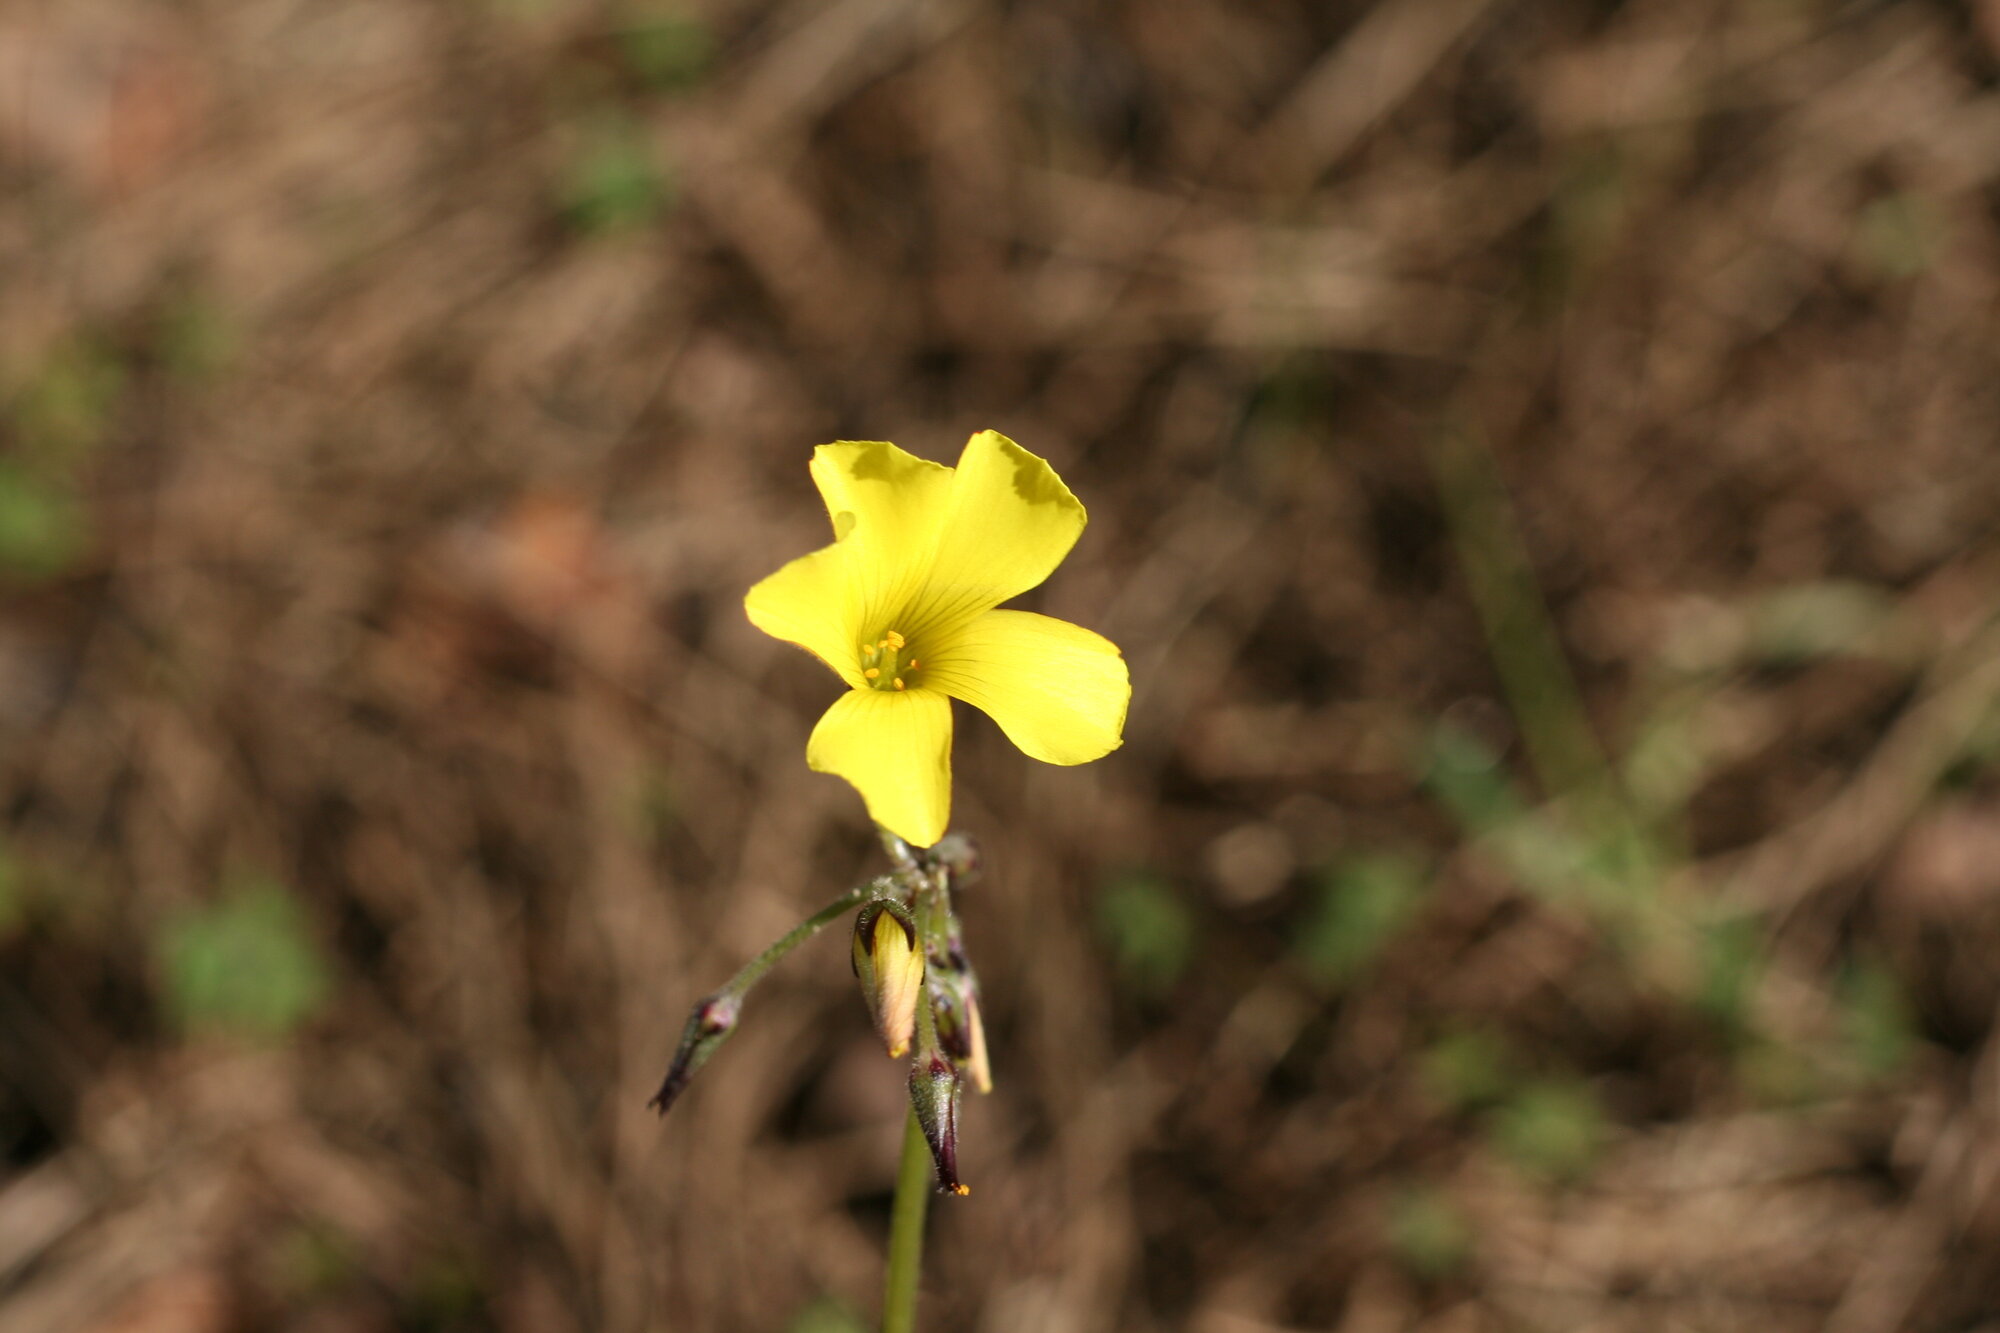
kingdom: Plantae
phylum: Tracheophyta
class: Magnoliopsida
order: Oxalidales
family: Oxalidaceae
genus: Oxalis
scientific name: Oxalis pes-caprae
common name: Bermuda-buttercup
